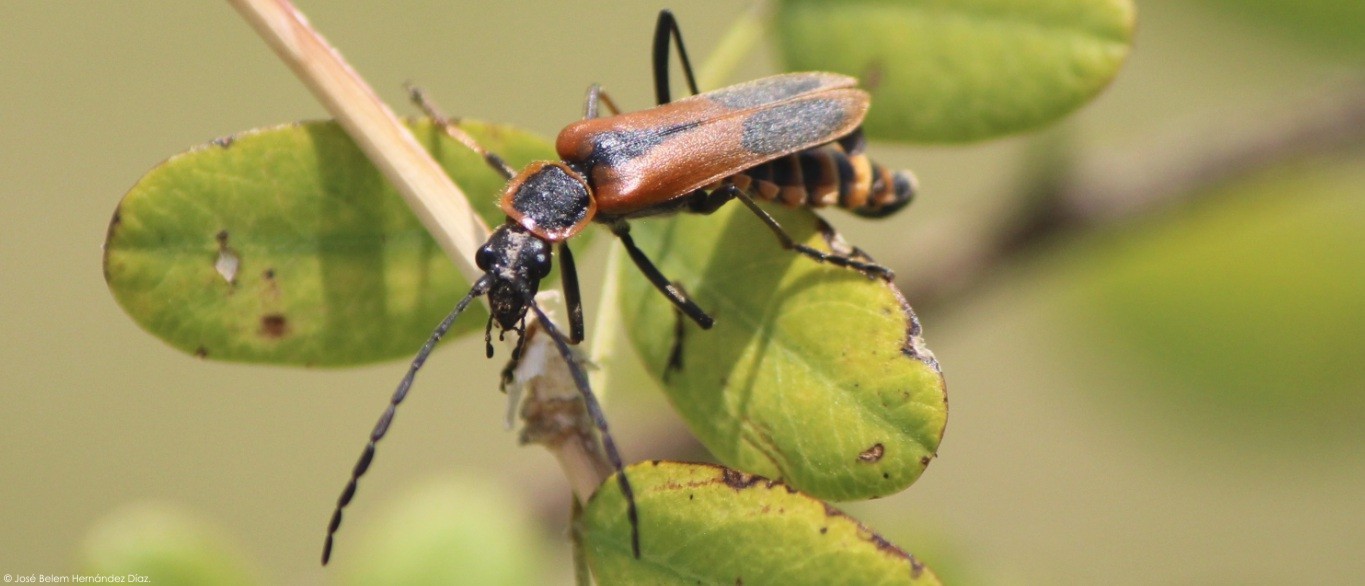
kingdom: Animalia
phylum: Arthropoda
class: Insecta
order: Coleoptera
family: Cantharidae
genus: Chauliognathus
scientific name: Chauliognathus limbicollis
